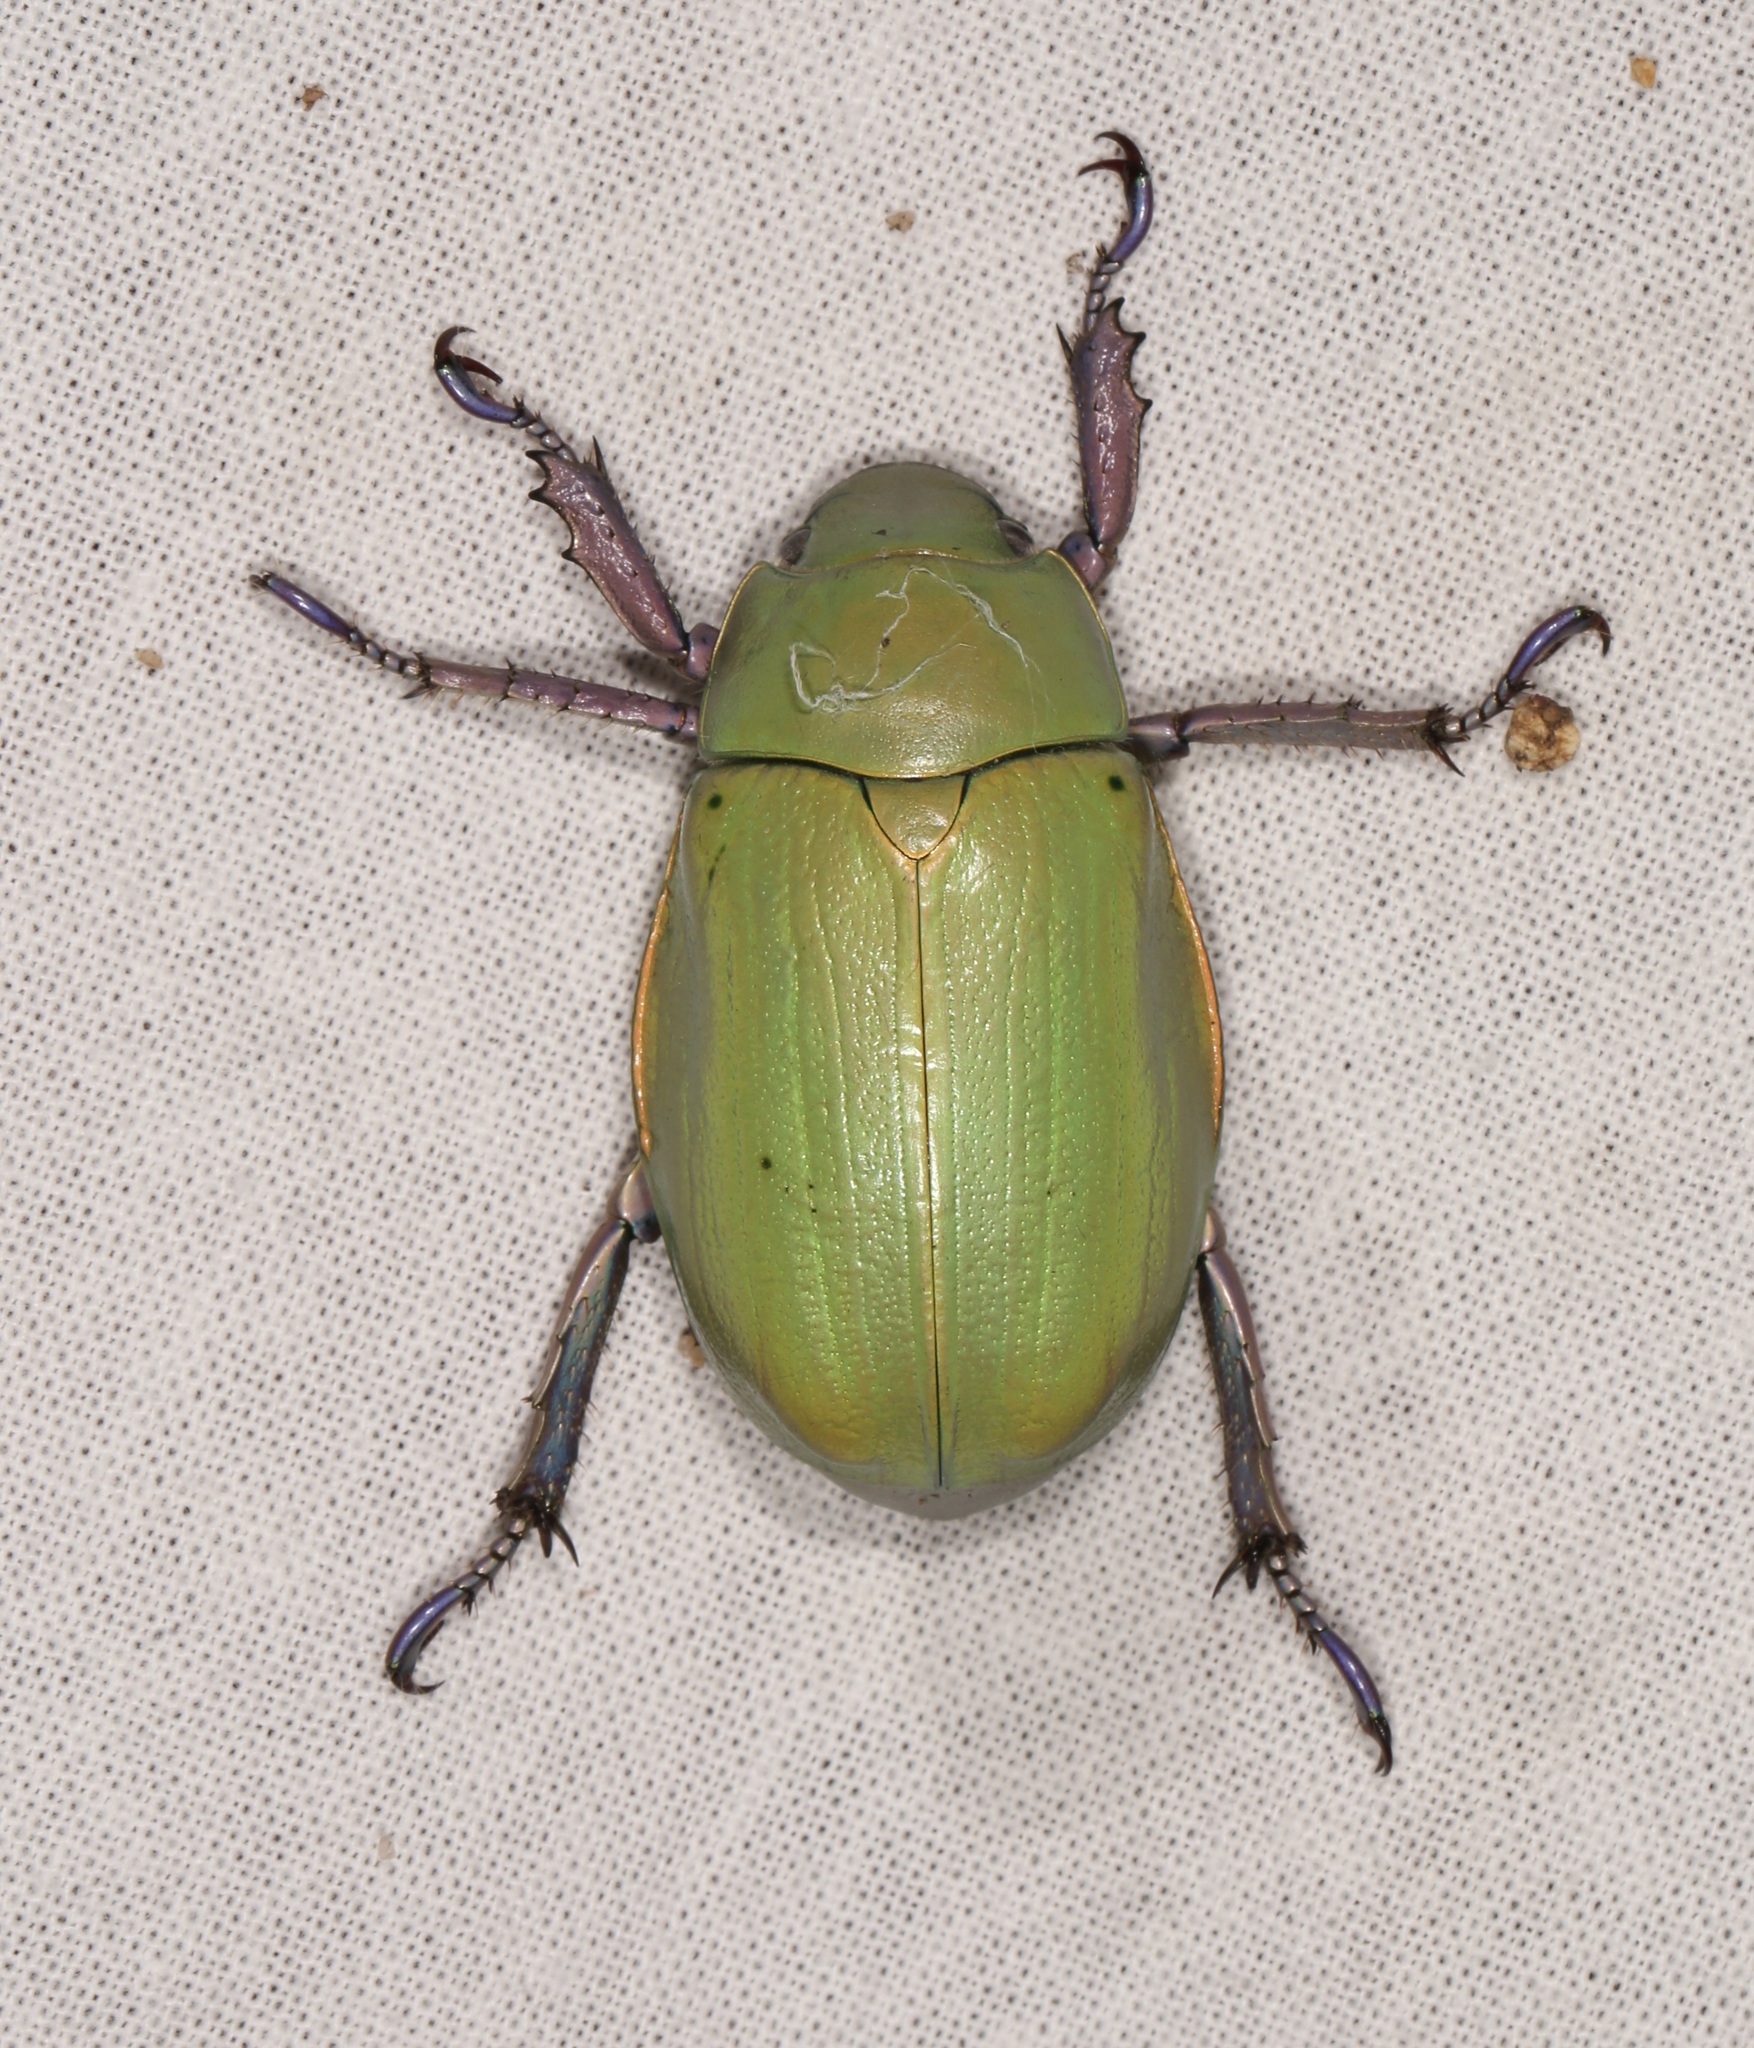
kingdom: Animalia
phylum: Arthropoda
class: Insecta
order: Coleoptera
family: Scarabaeidae
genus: Chrysina
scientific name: Chrysina beyeri
